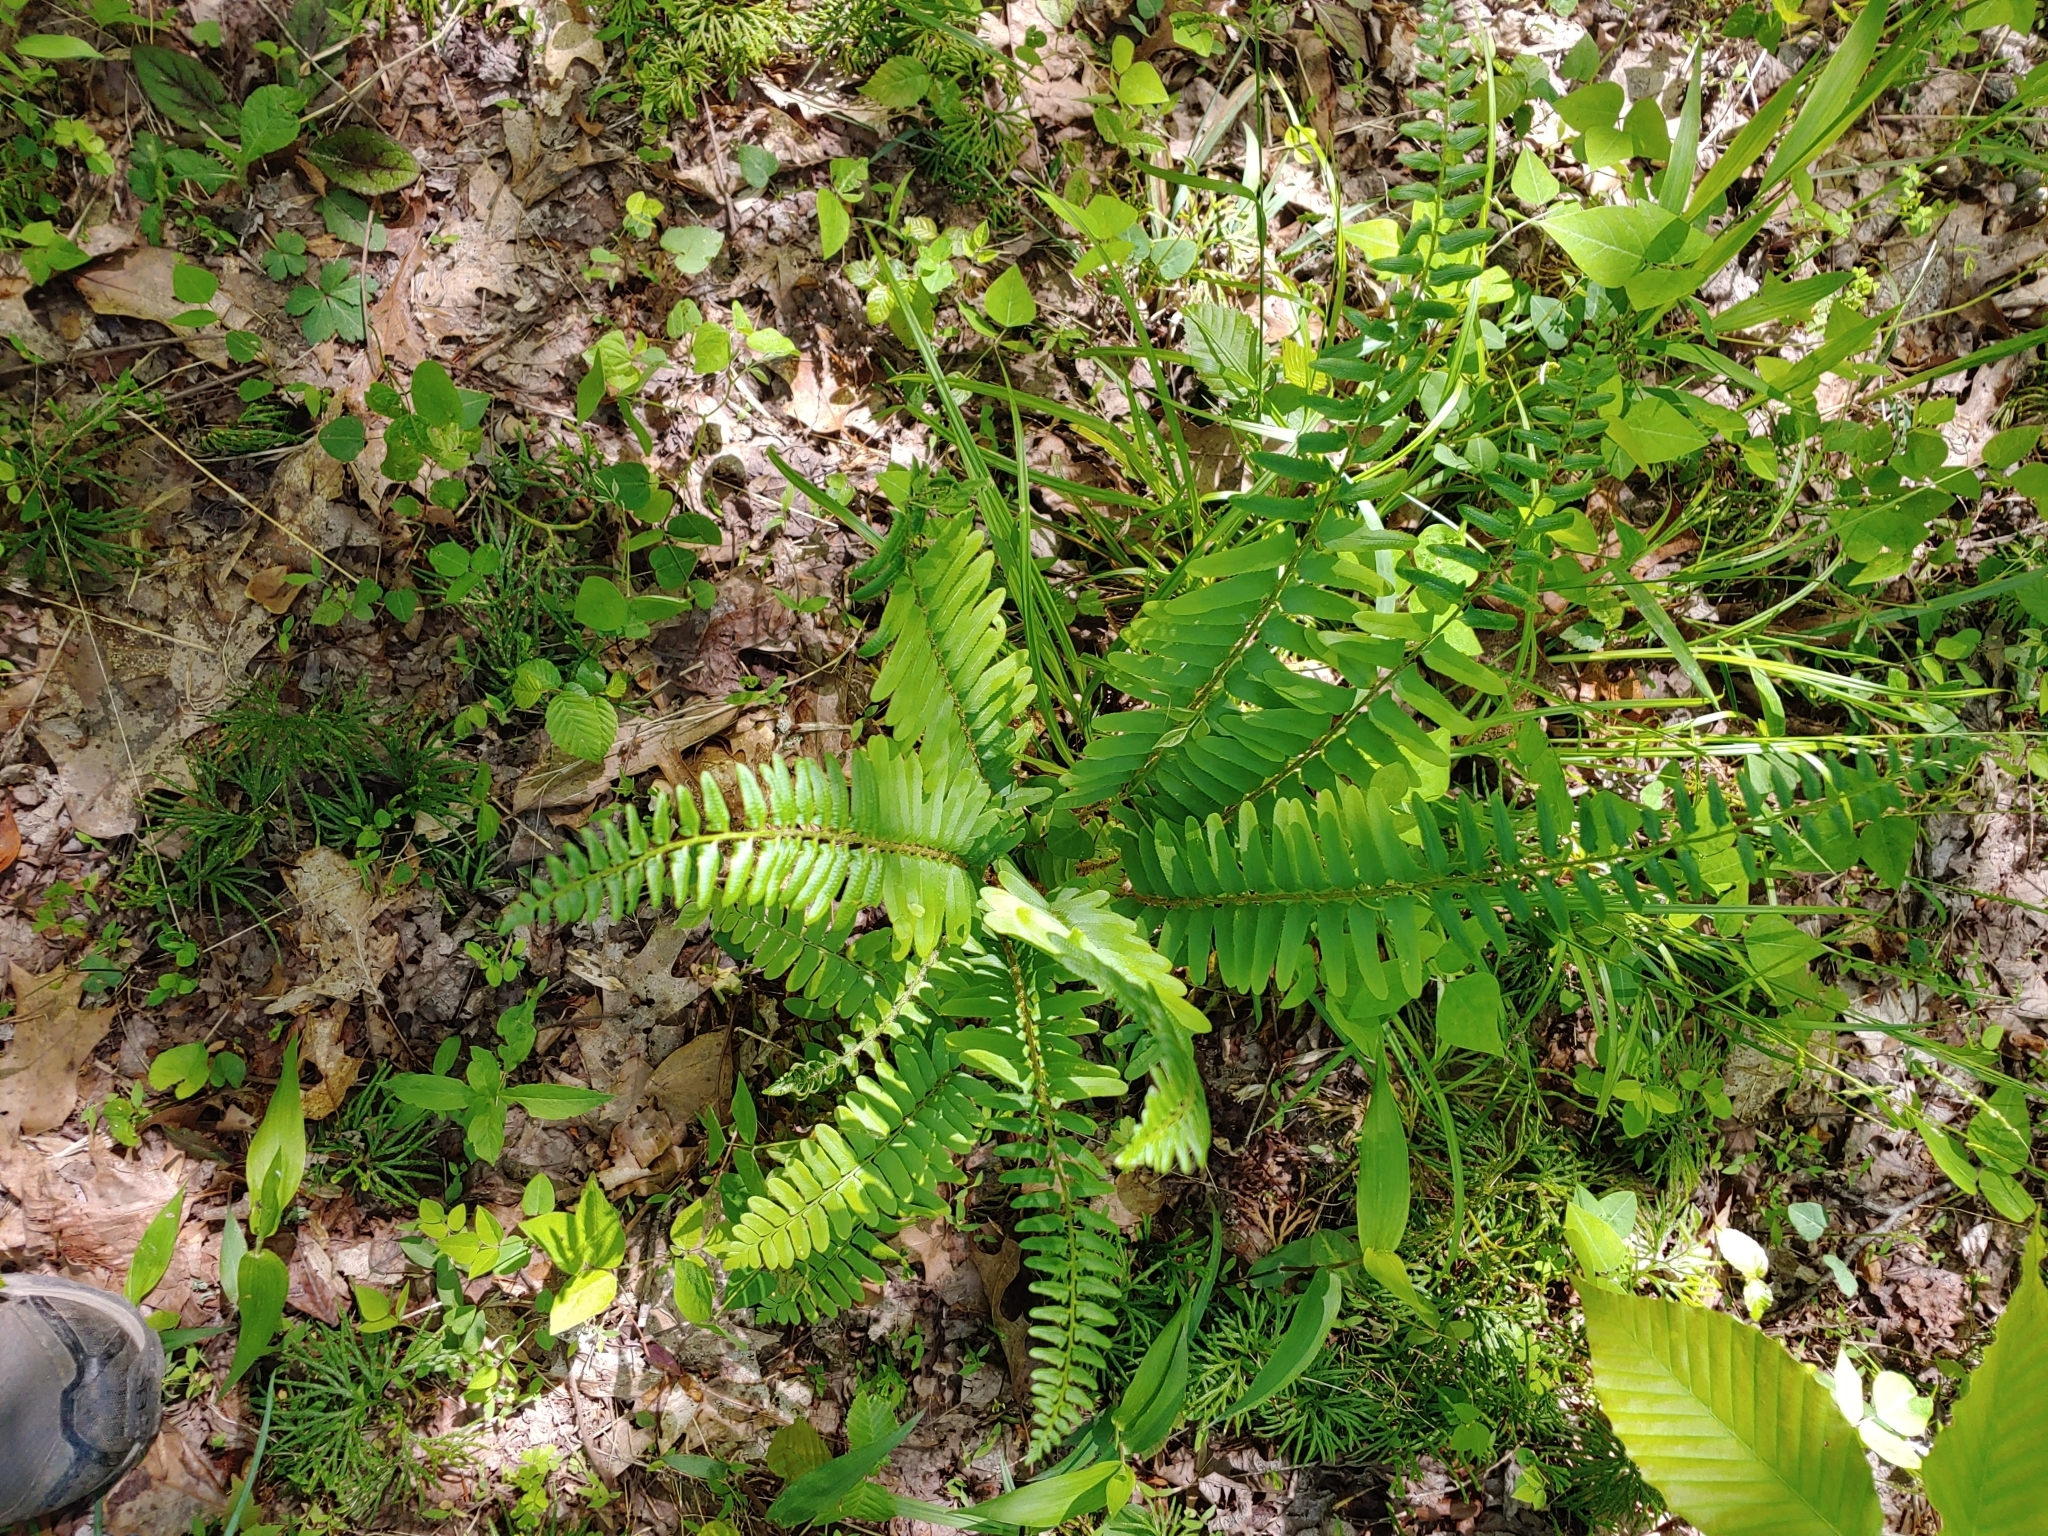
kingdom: Plantae
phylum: Tracheophyta
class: Polypodiopsida
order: Polypodiales
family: Dryopteridaceae
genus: Polystichum
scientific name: Polystichum acrostichoides
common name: Christmas fern
